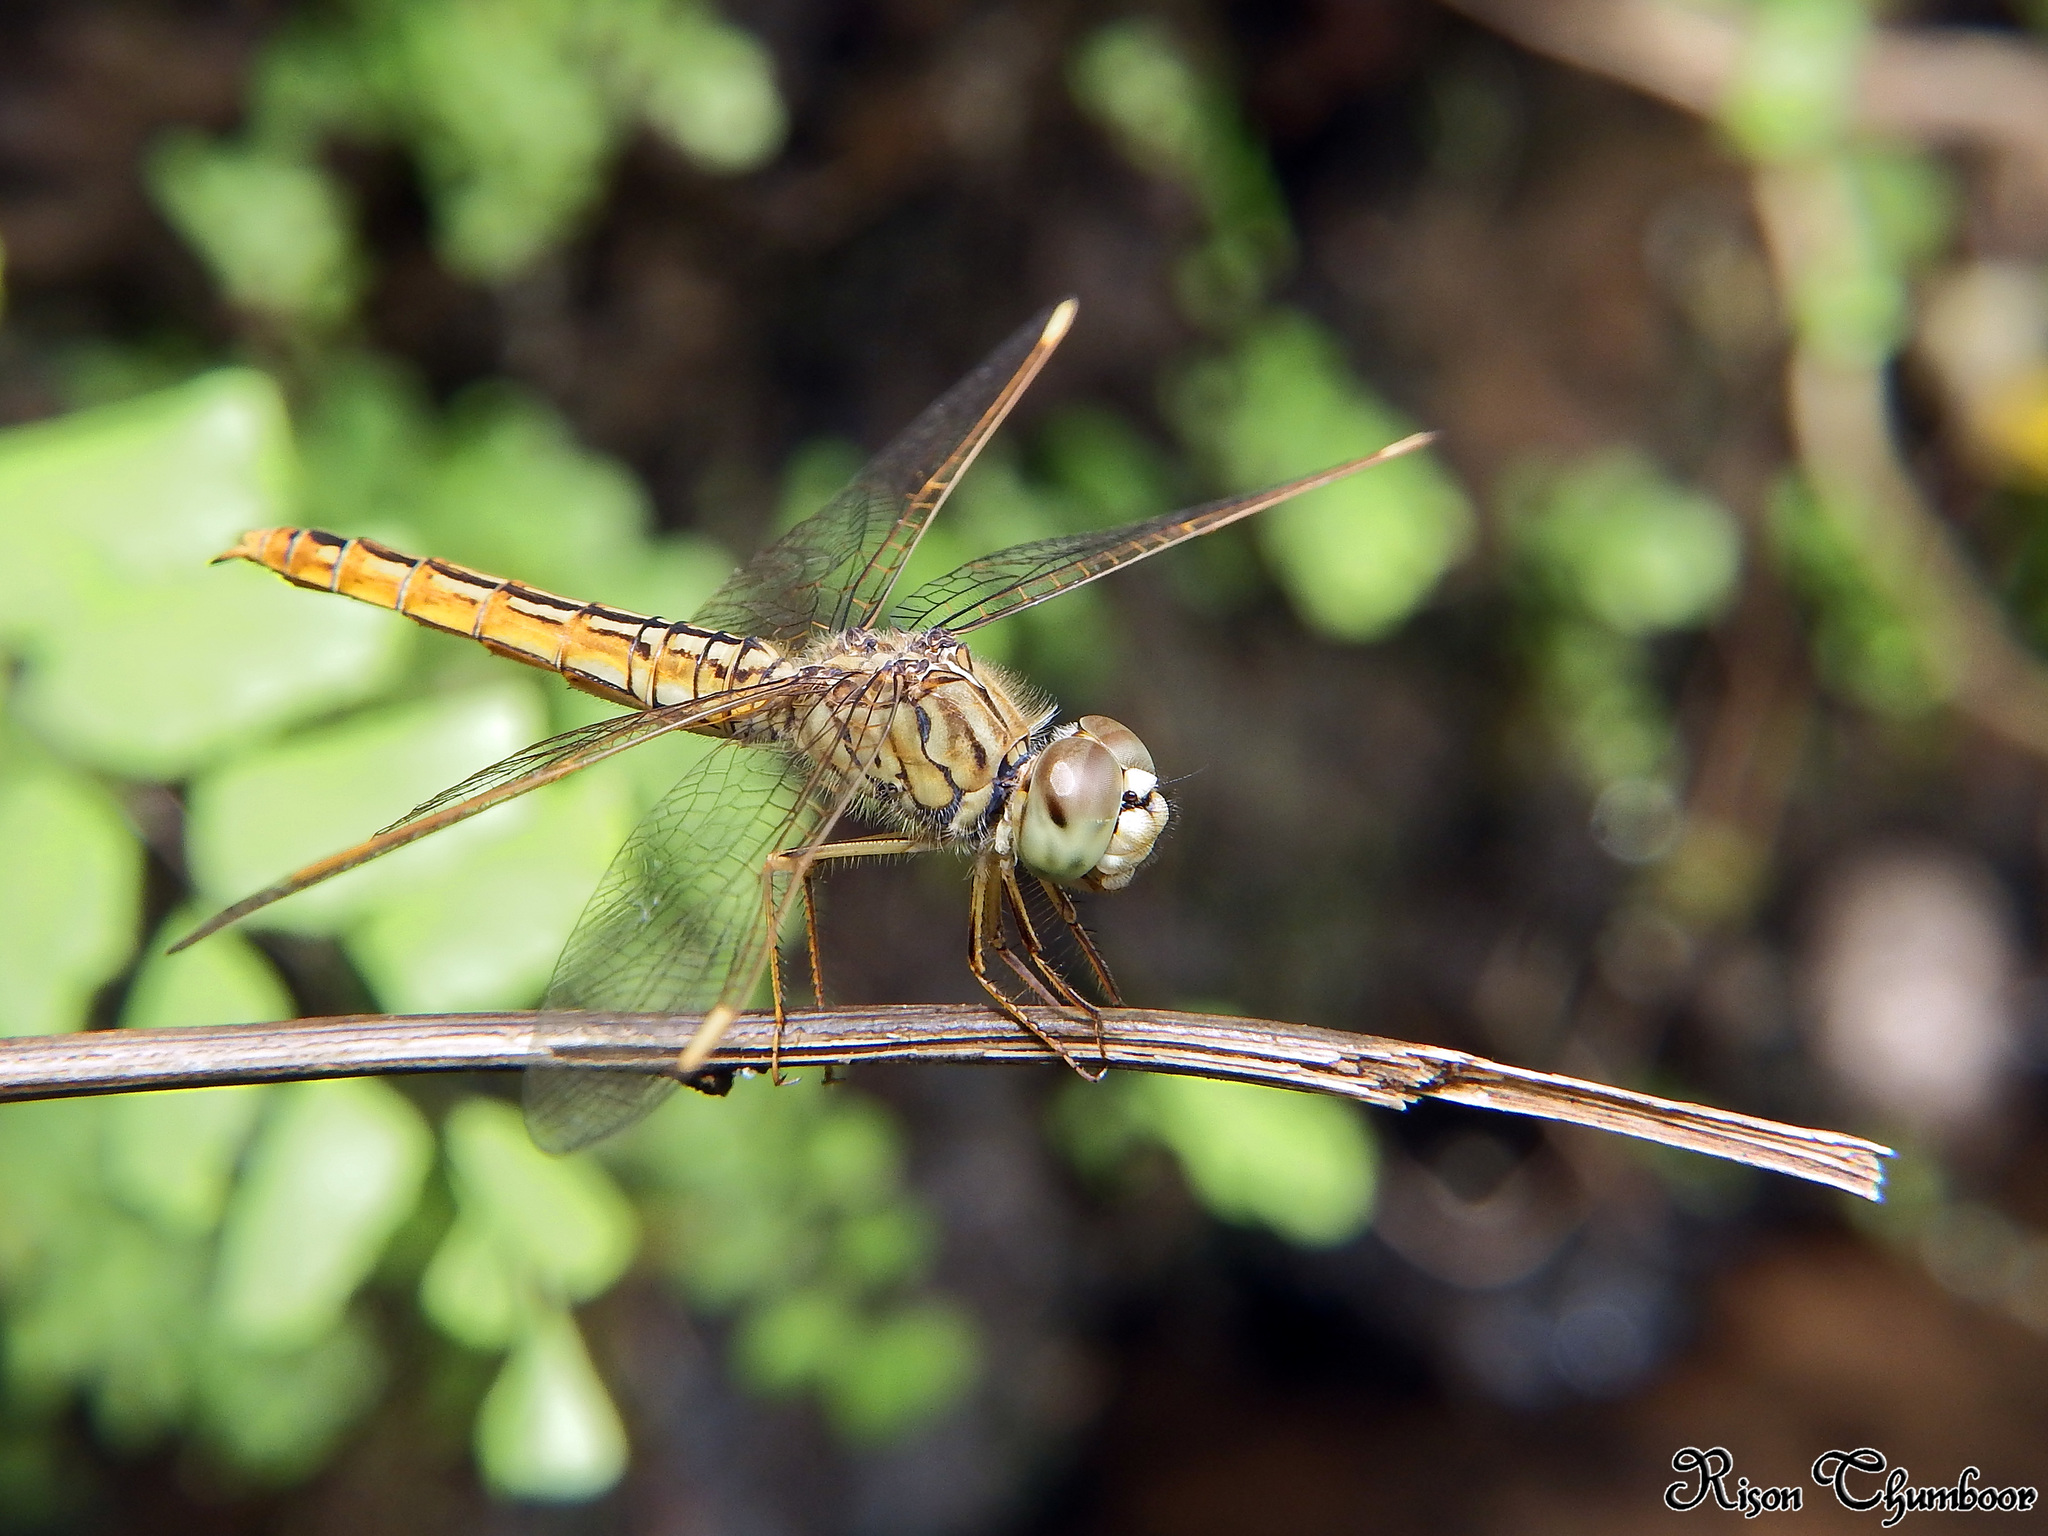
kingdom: Animalia
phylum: Arthropoda
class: Insecta
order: Odonata
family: Libellulidae
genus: Brachythemis
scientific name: Brachythemis contaminata
